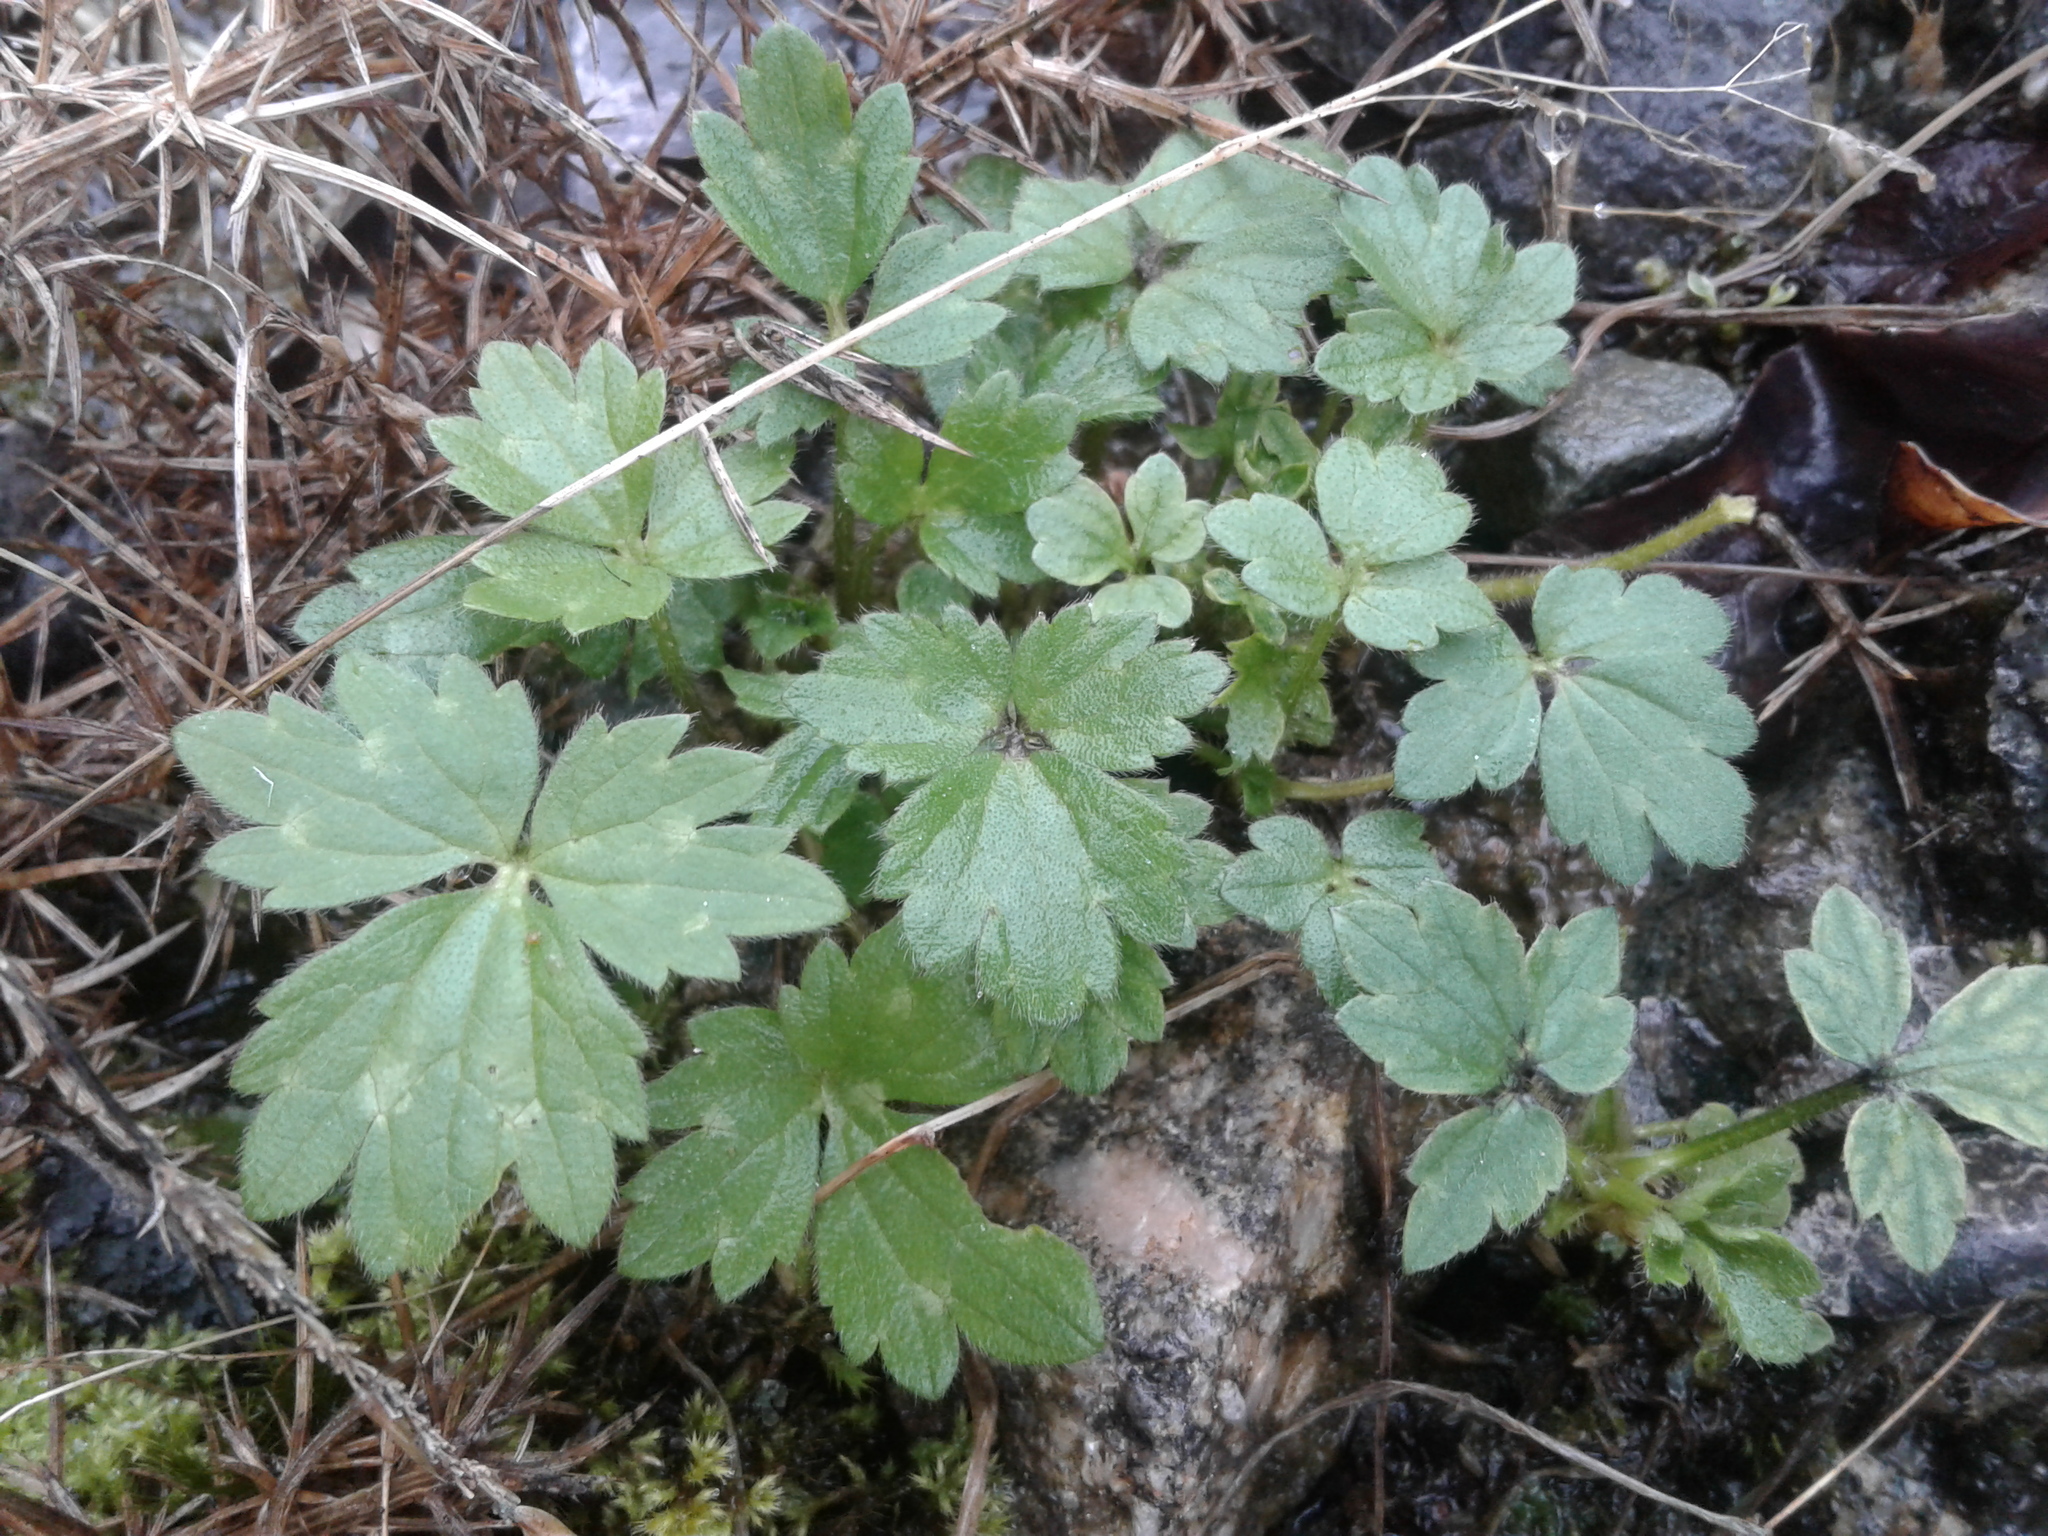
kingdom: Plantae
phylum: Tracheophyta
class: Magnoliopsida
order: Ranunculales
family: Ranunculaceae
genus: Ranunculus
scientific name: Ranunculus repens
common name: Creeping buttercup
